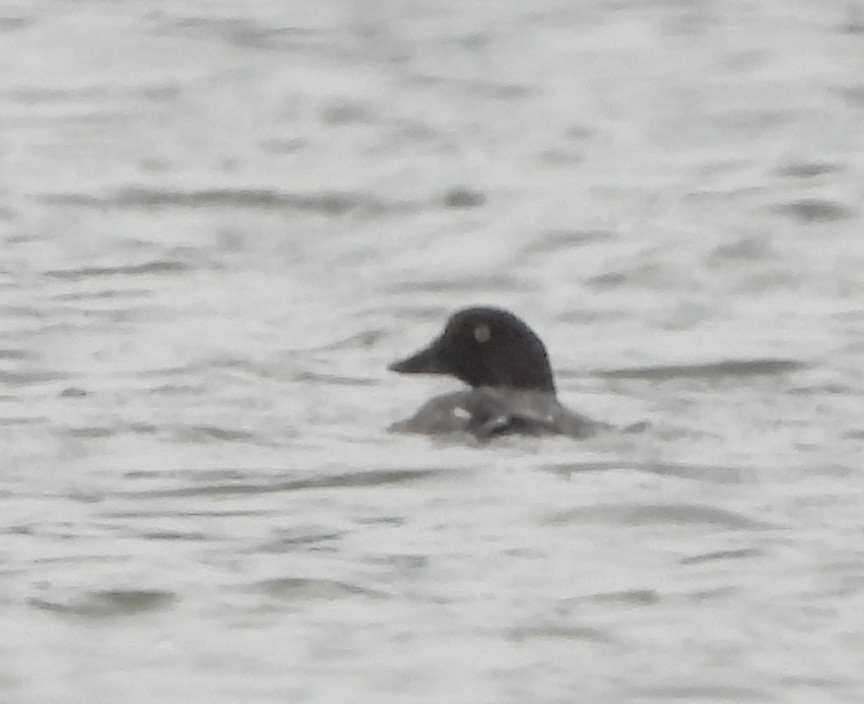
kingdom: Animalia
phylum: Chordata
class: Aves
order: Anseriformes
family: Anatidae
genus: Bucephala
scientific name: Bucephala clangula
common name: Common goldeneye
